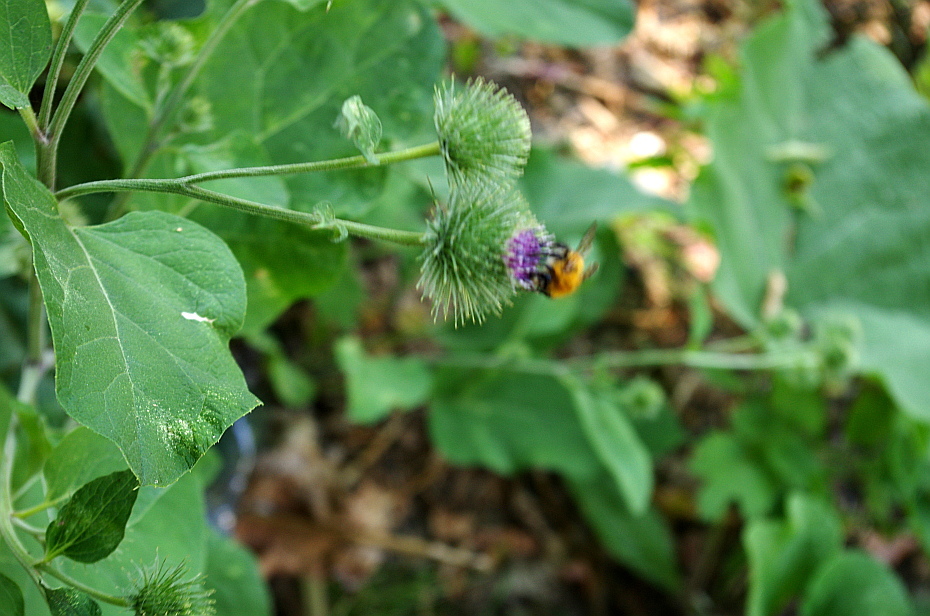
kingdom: Plantae
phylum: Tracheophyta
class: Magnoliopsida
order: Asterales
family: Asteraceae
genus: Arctium
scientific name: Arctium tomentosum
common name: Woolly burdock
